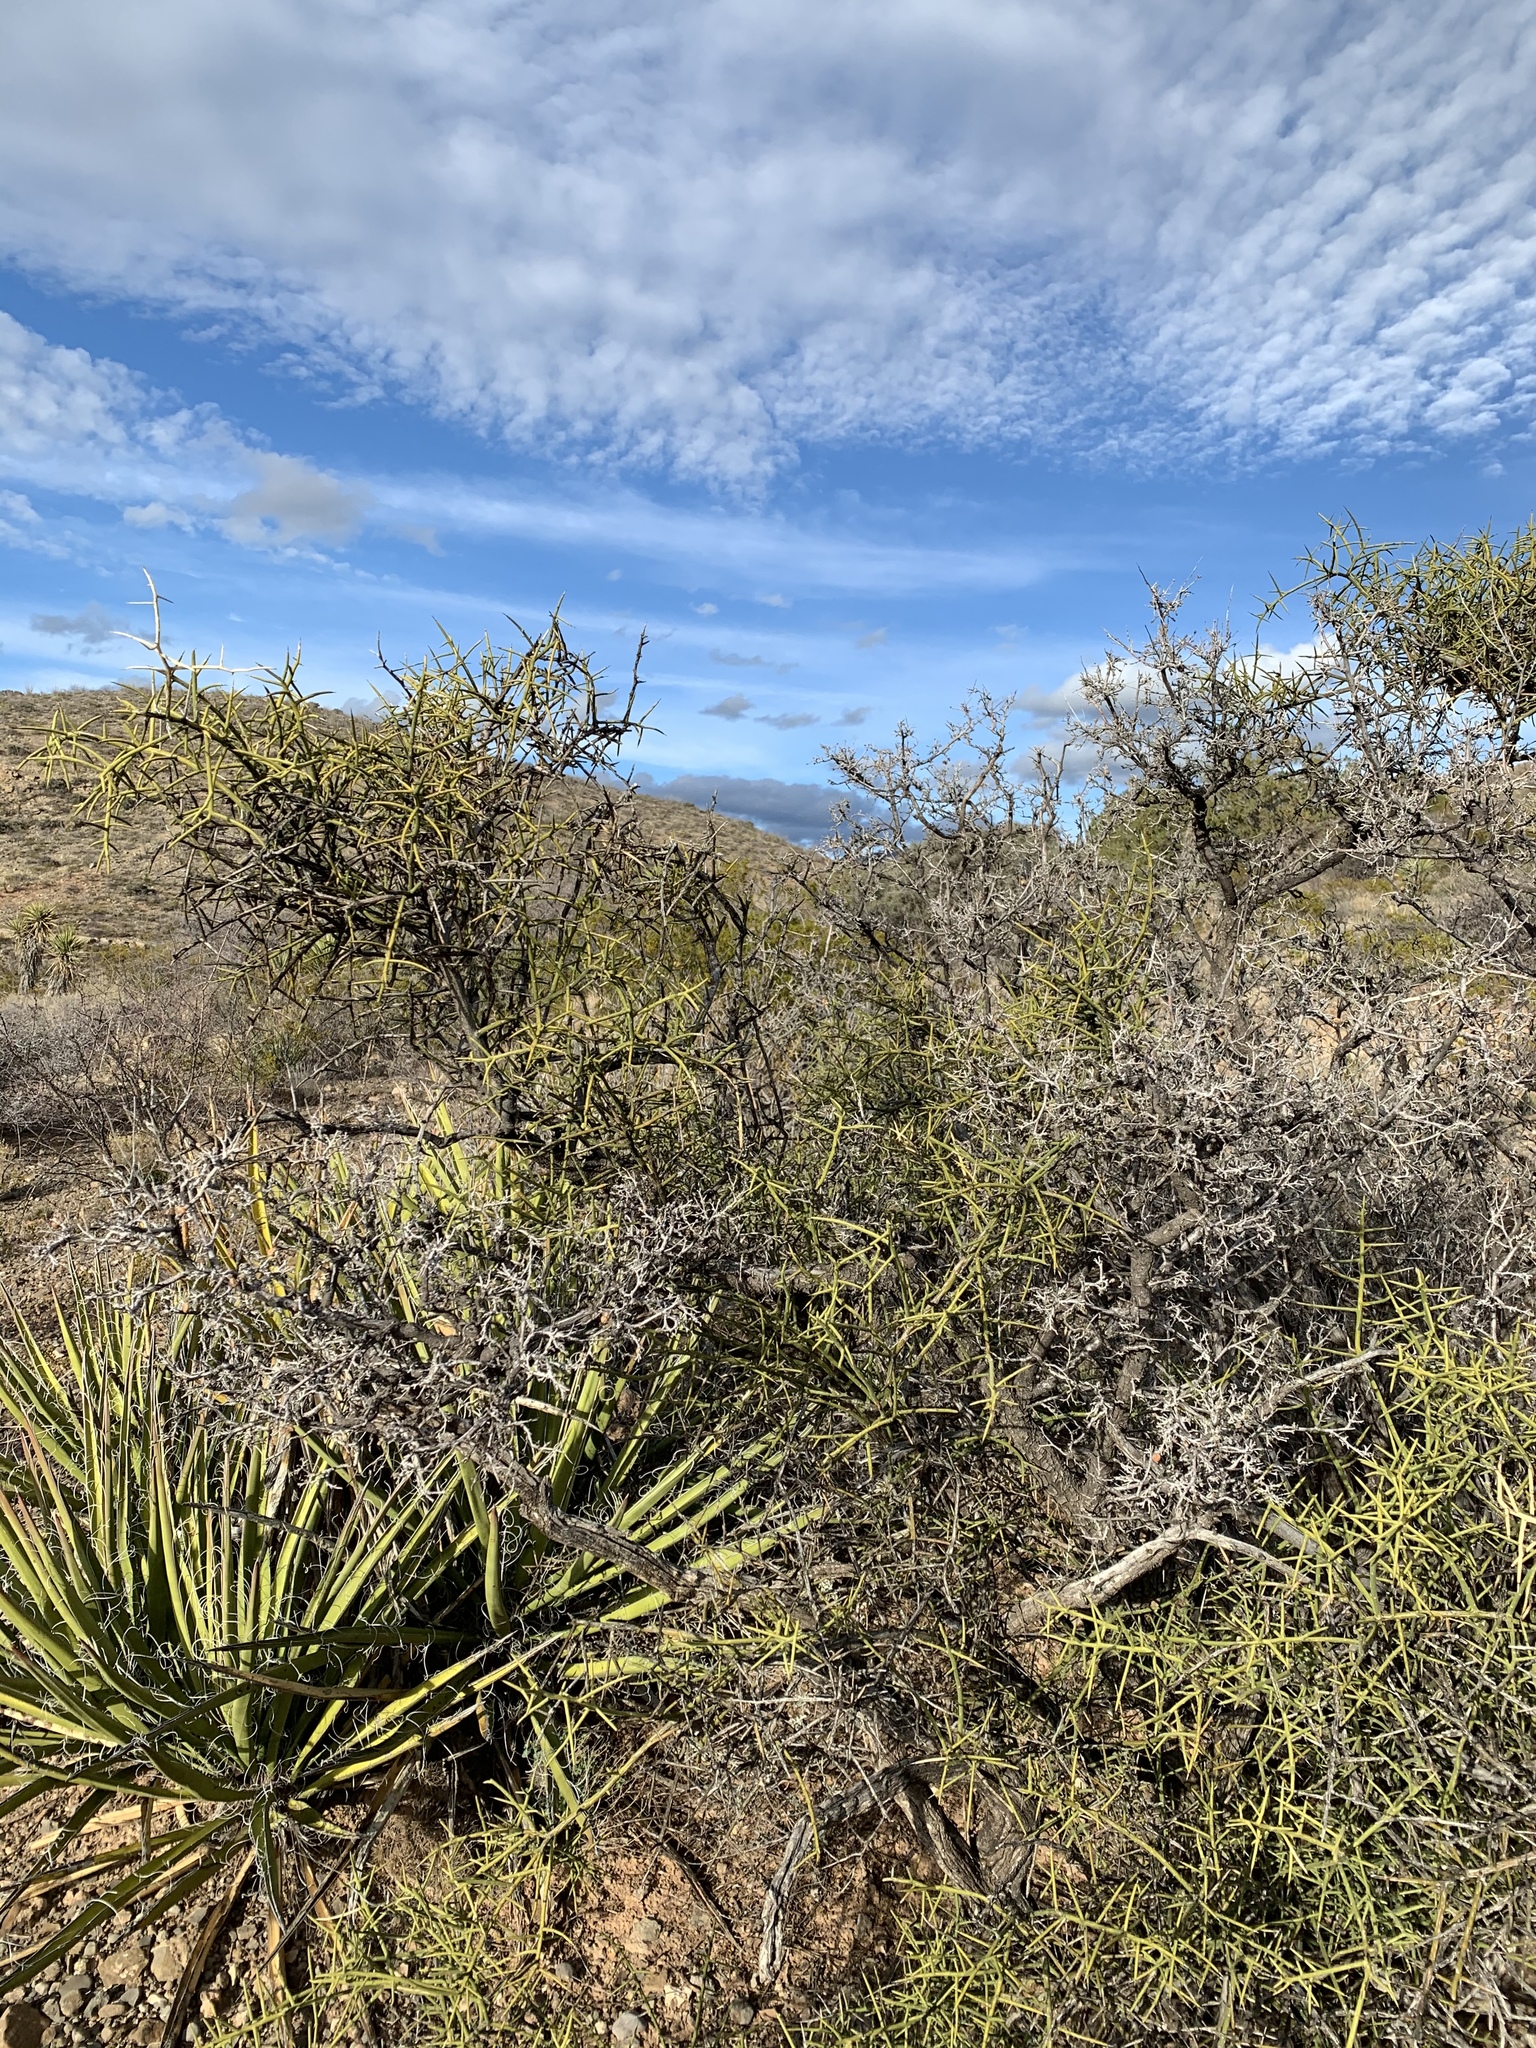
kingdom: Plantae
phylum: Tracheophyta
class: Magnoliopsida
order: Brassicales
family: Koeberliniaceae
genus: Koeberlinia
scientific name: Koeberlinia spinosa
